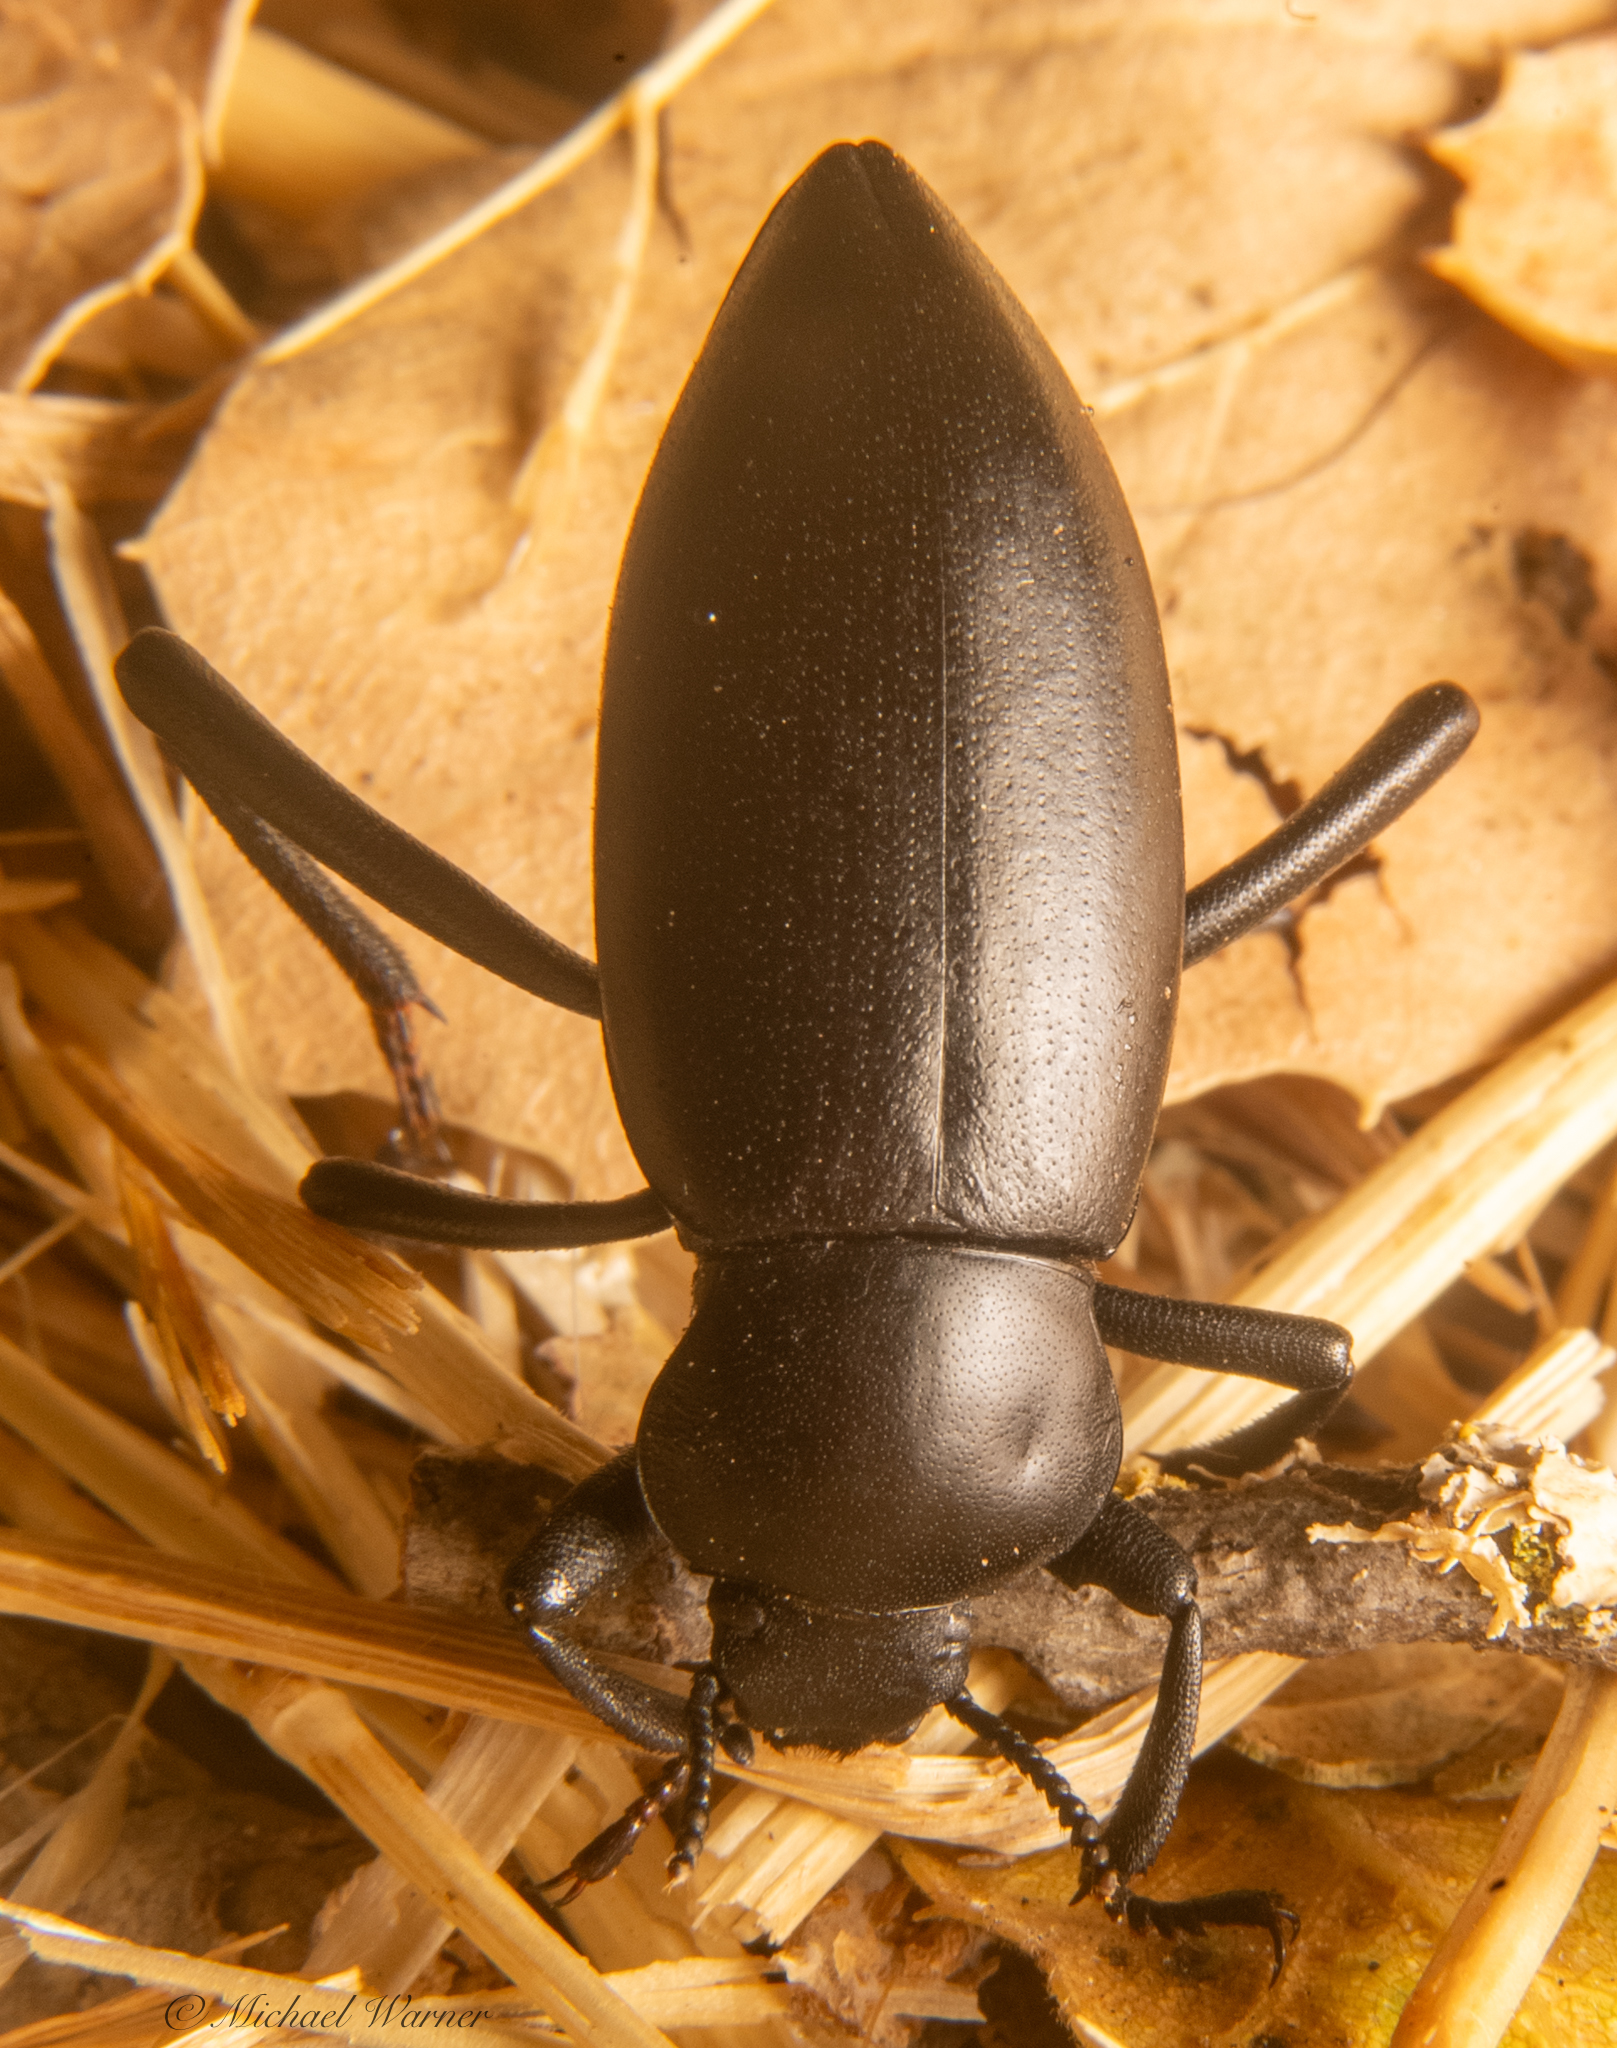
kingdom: Animalia
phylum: Arthropoda
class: Insecta
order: Coleoptera
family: Tenebrionidae
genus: Eleodes
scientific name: Eleodes dentipes
